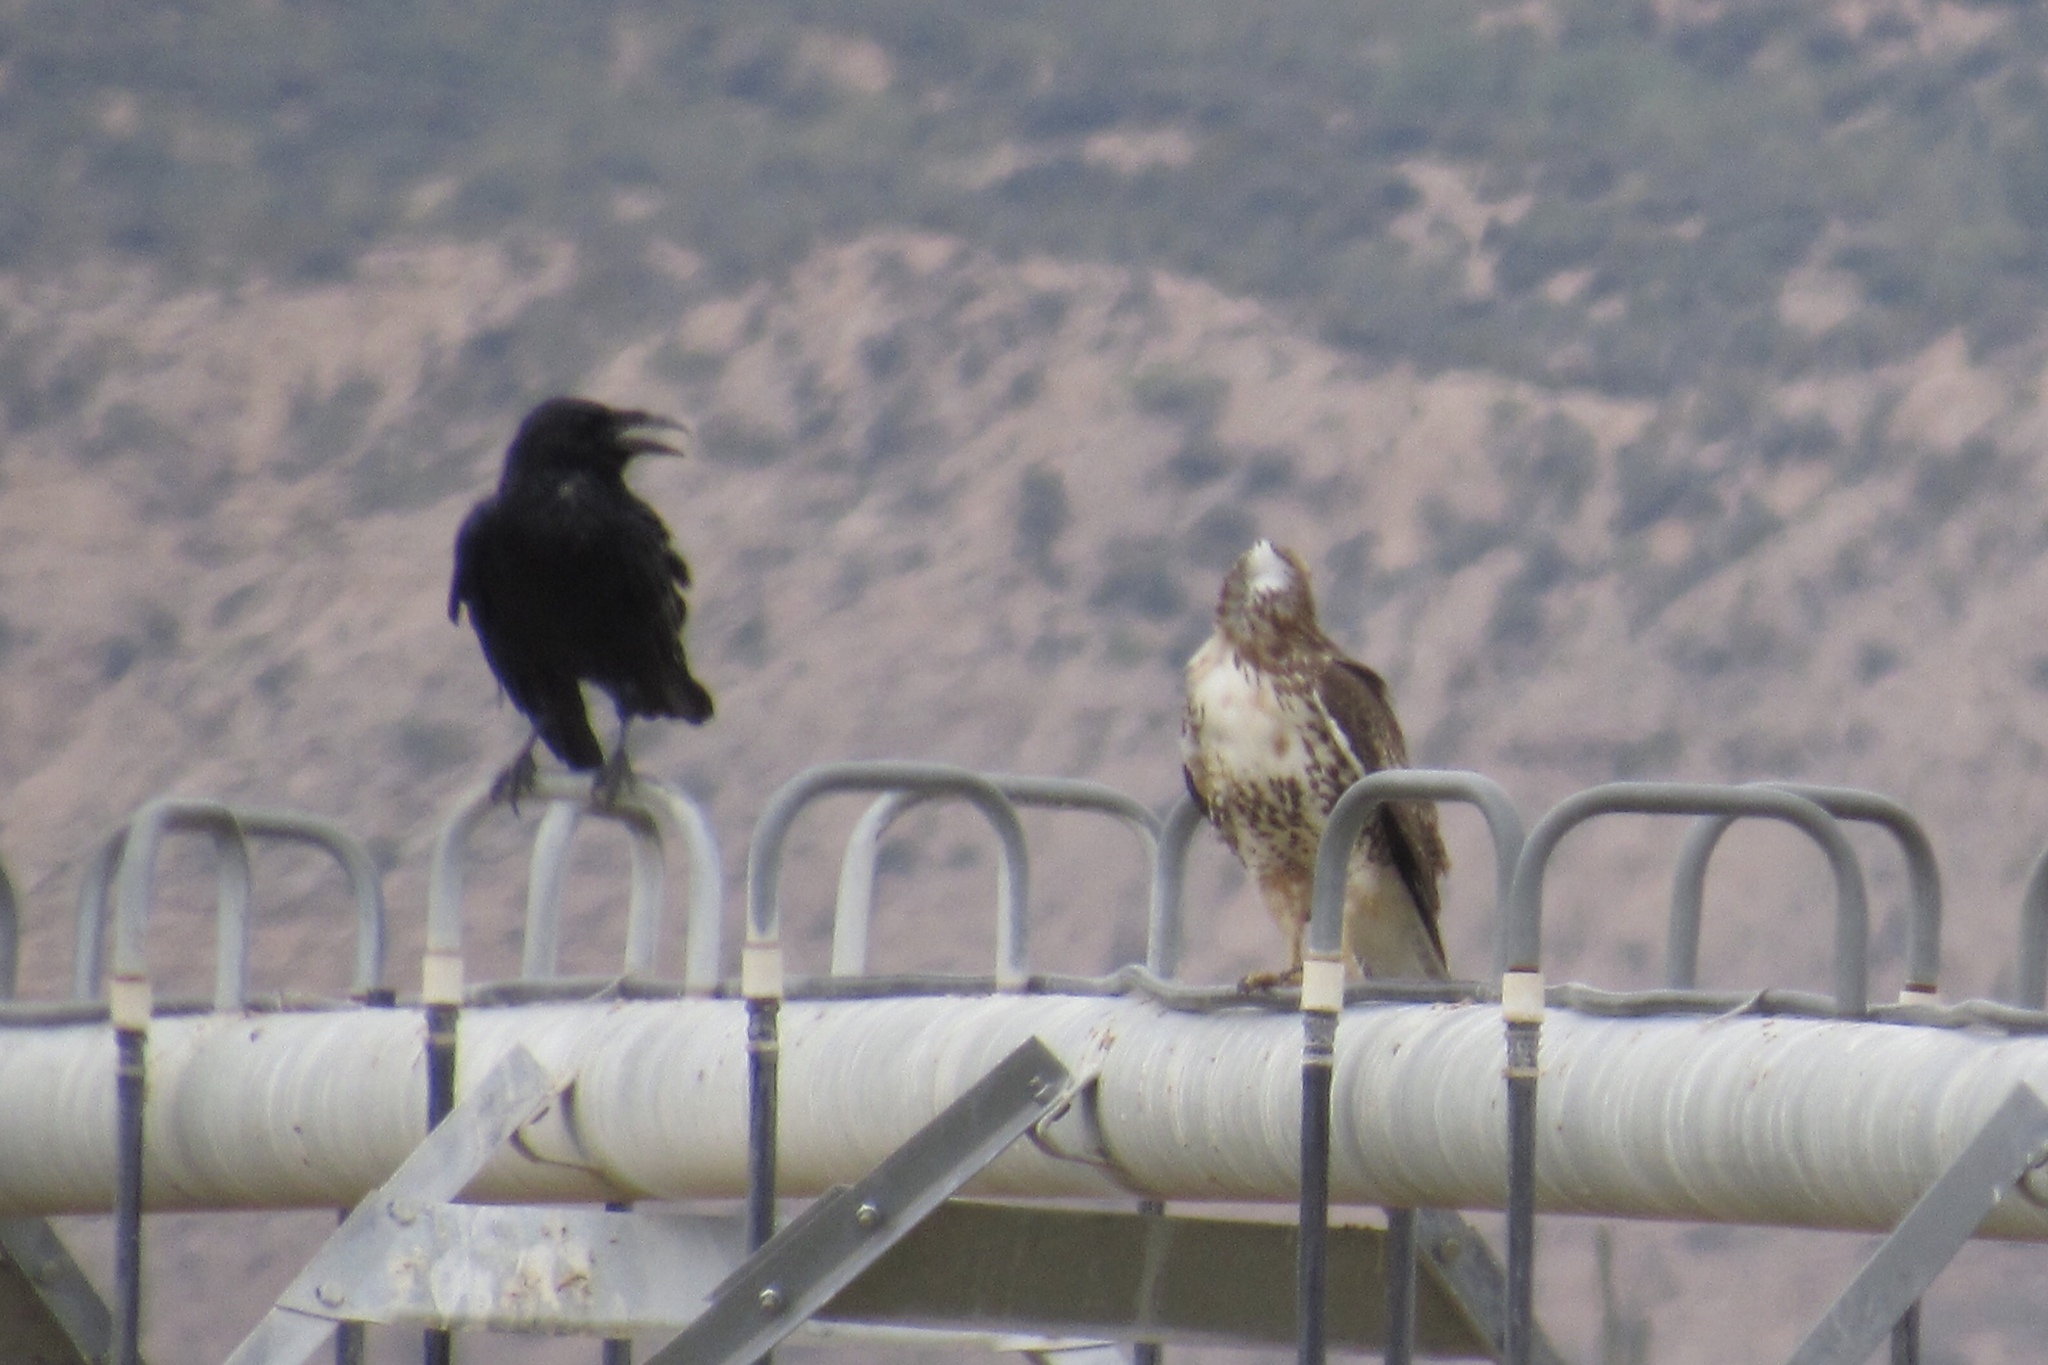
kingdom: Animalia
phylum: Chordata
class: Aves
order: Accipitriformes
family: Accipitridae
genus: Buteo
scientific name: Buteo jamaicensis
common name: Red-tailed hawk
